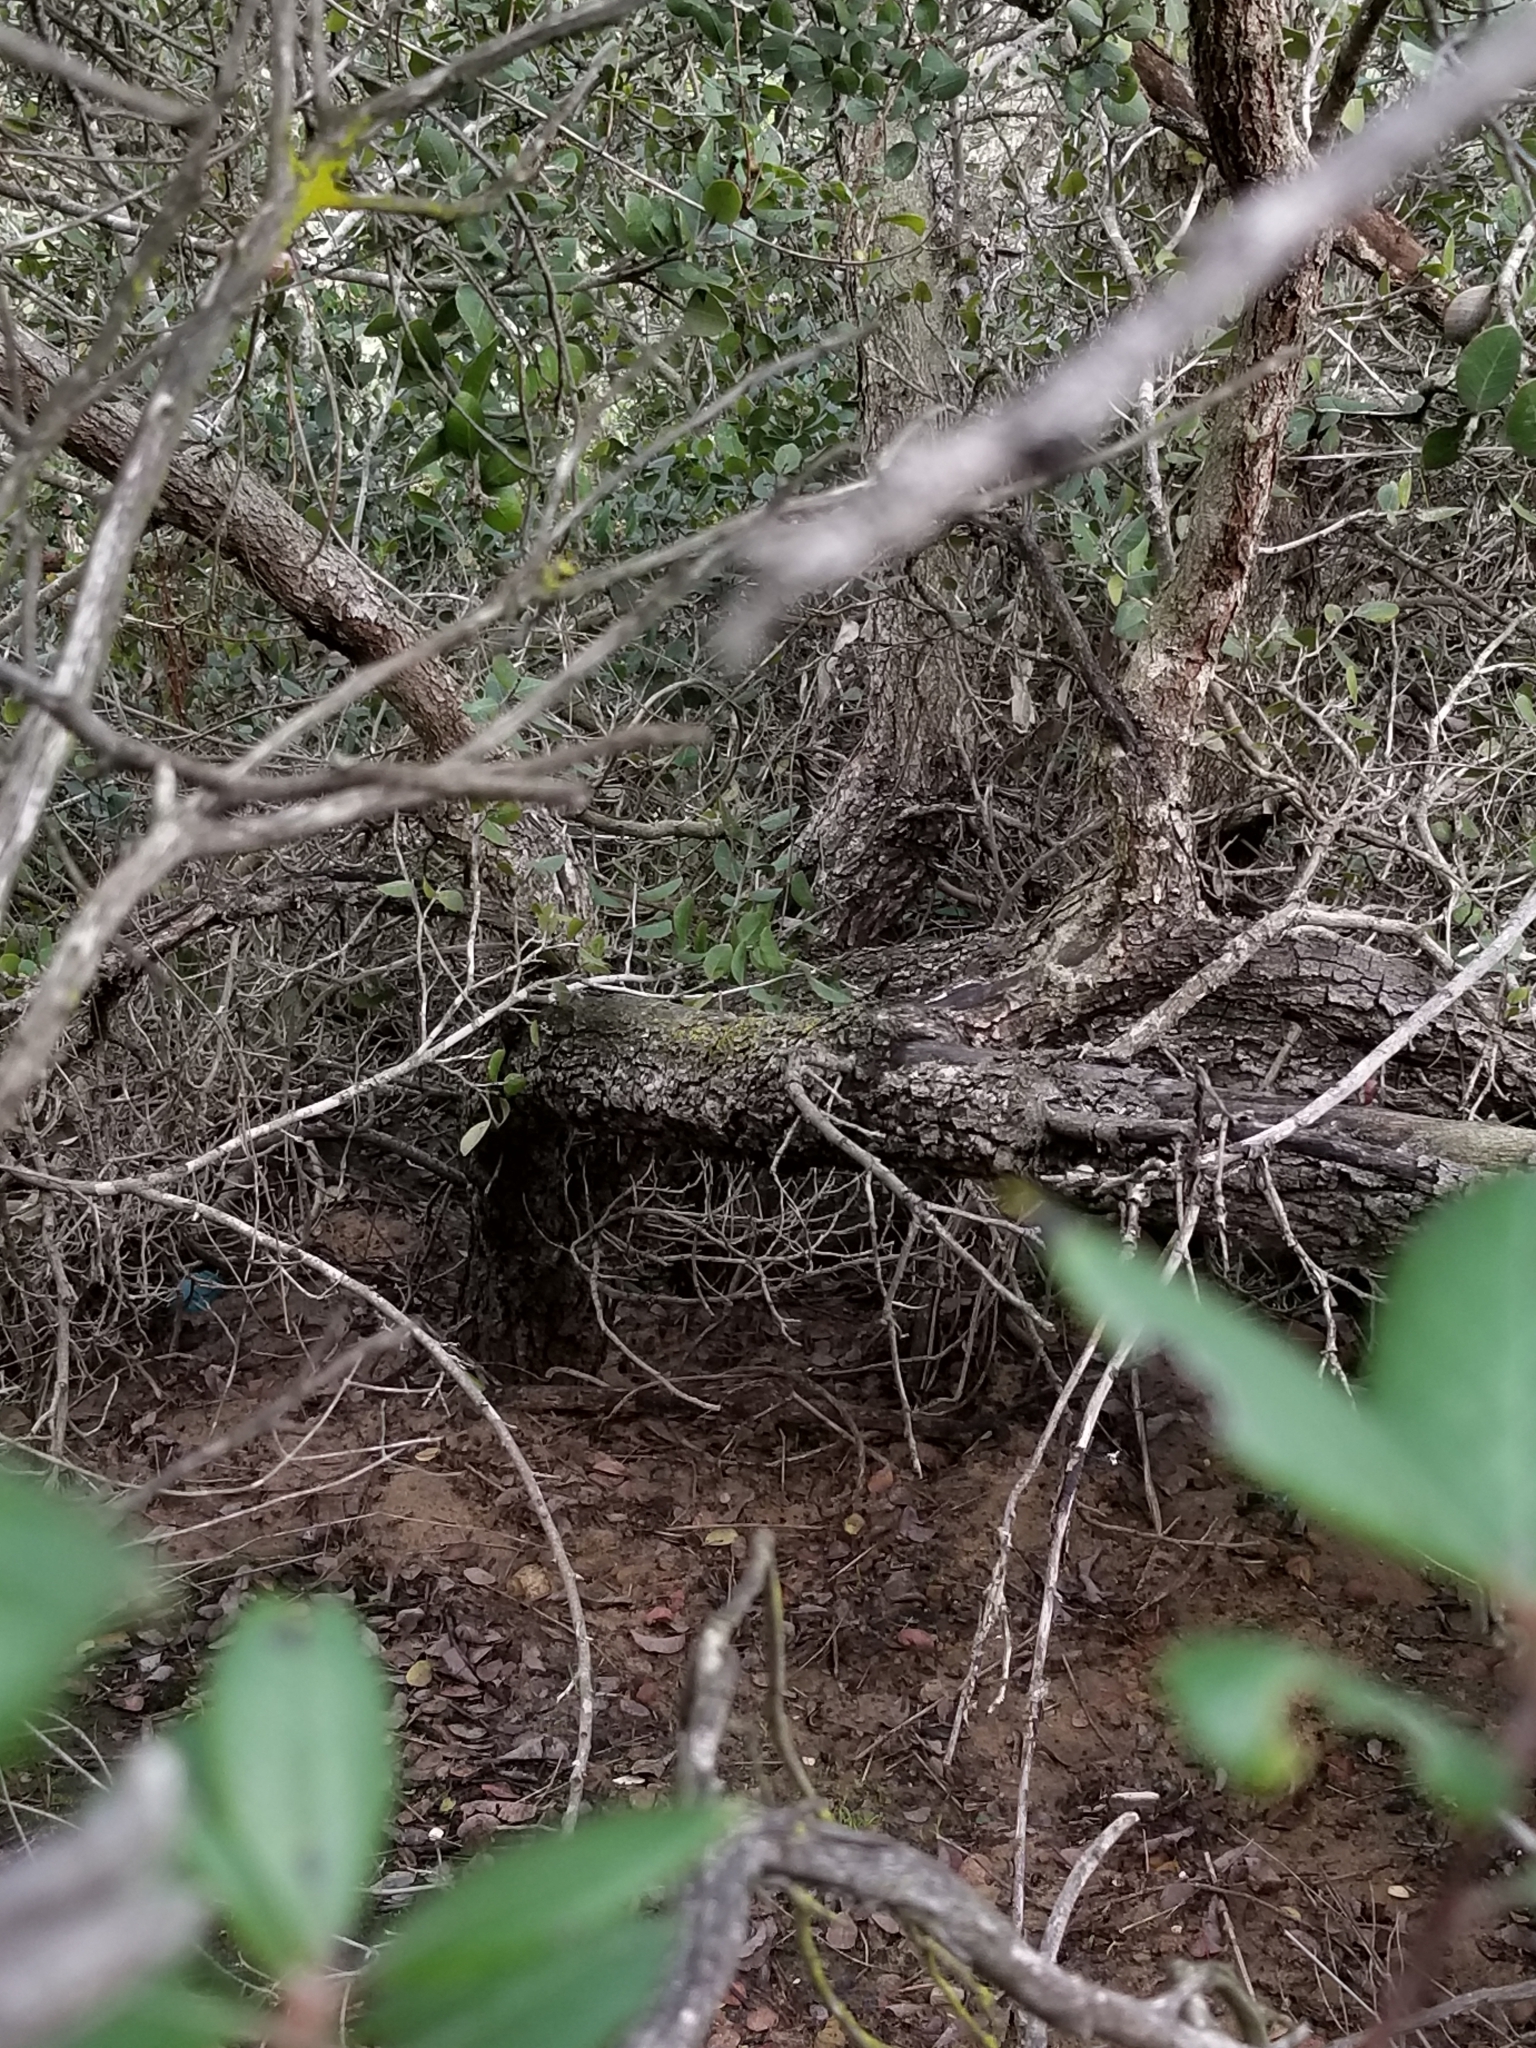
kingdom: Plantae
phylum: Tracheophyta
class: Magnoliopsida
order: Sapindales
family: Anacardiaceae
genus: Rhus
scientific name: Rhus integrifolia
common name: Lemonade sumac
